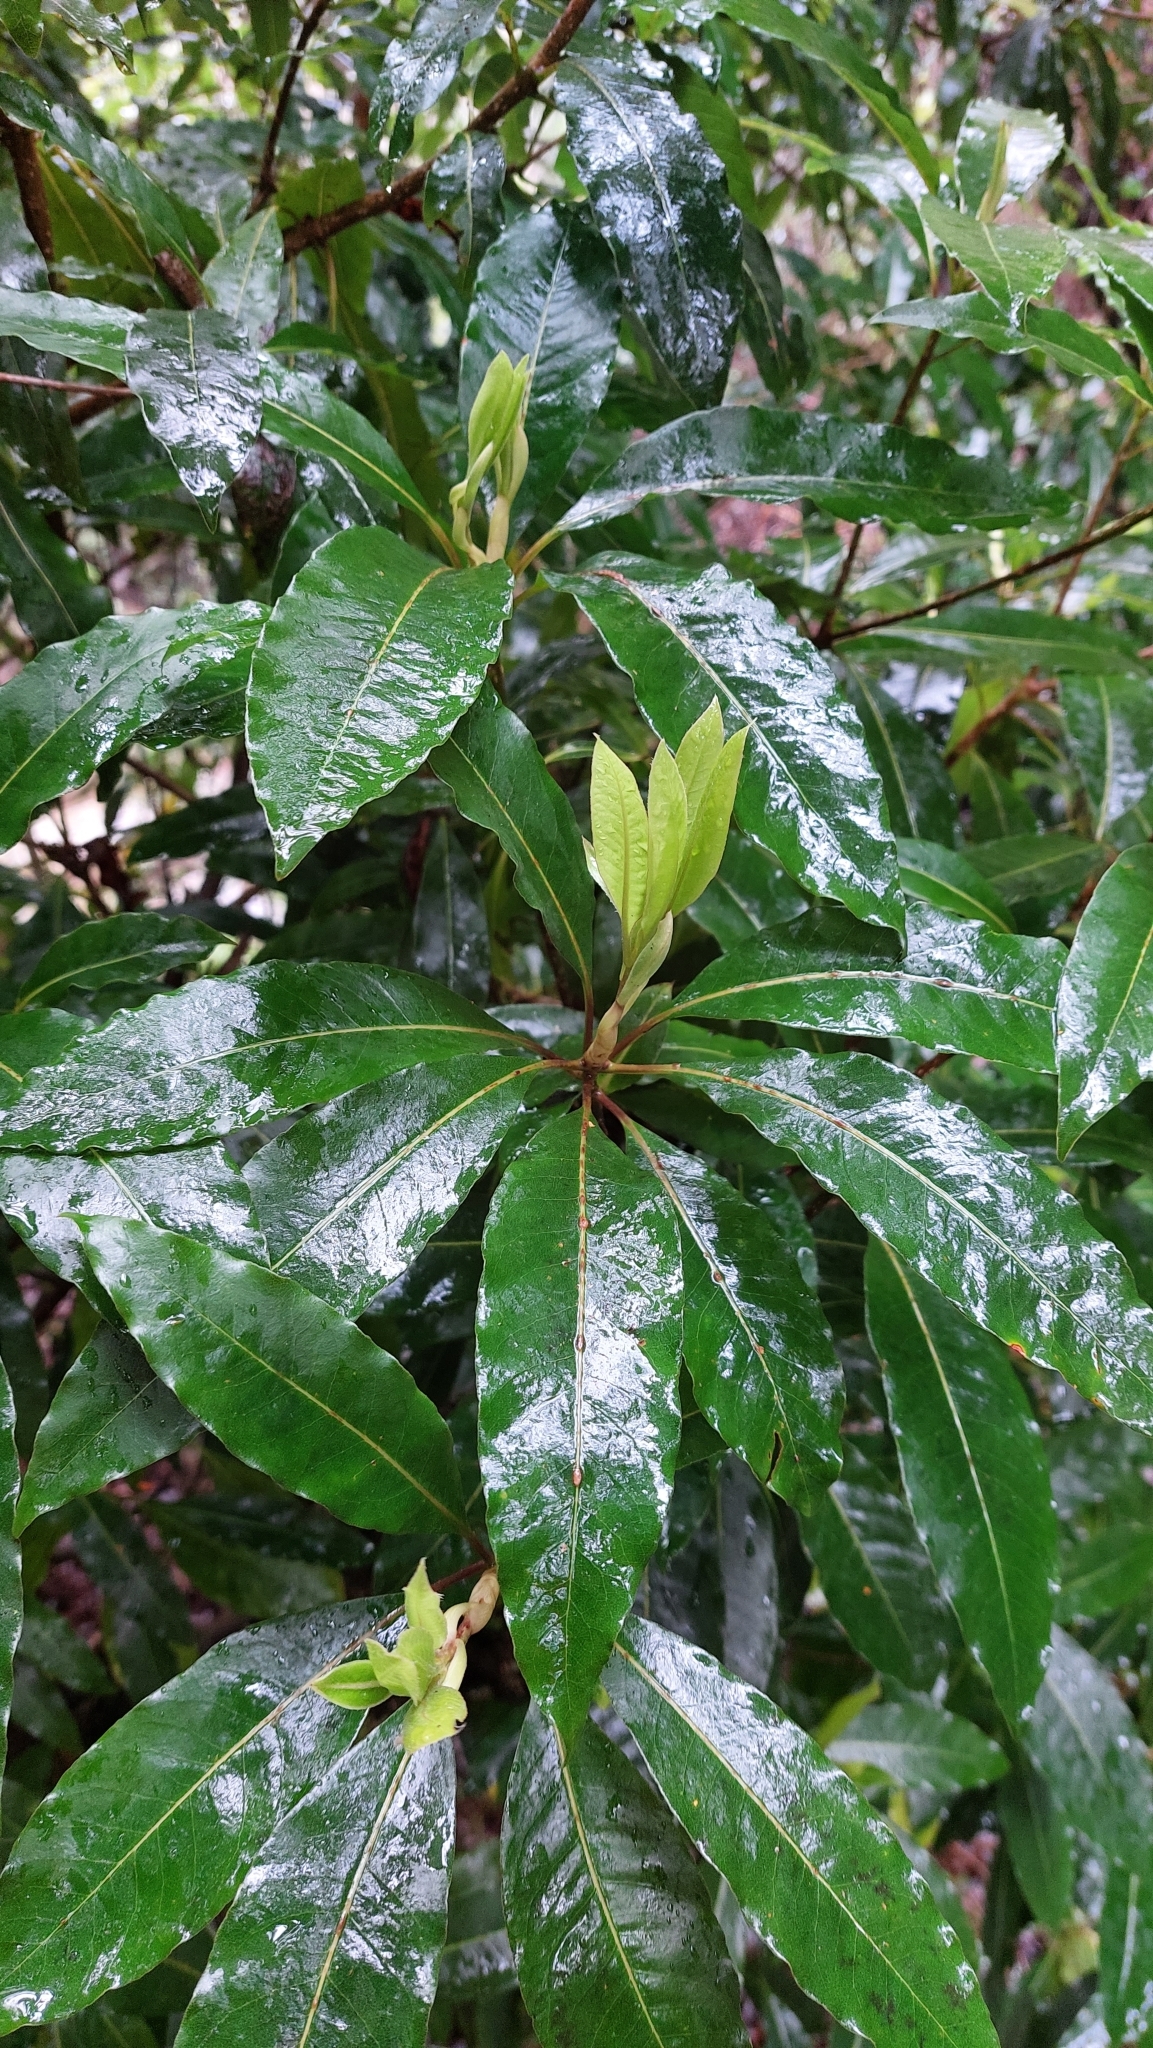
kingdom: Plantae
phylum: Tracheophyta
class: Magnoliopsida
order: Apiales
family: Pittosporaceae
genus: Pittosporum
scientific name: Pittosporum undulatum
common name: Australian cheesewood
